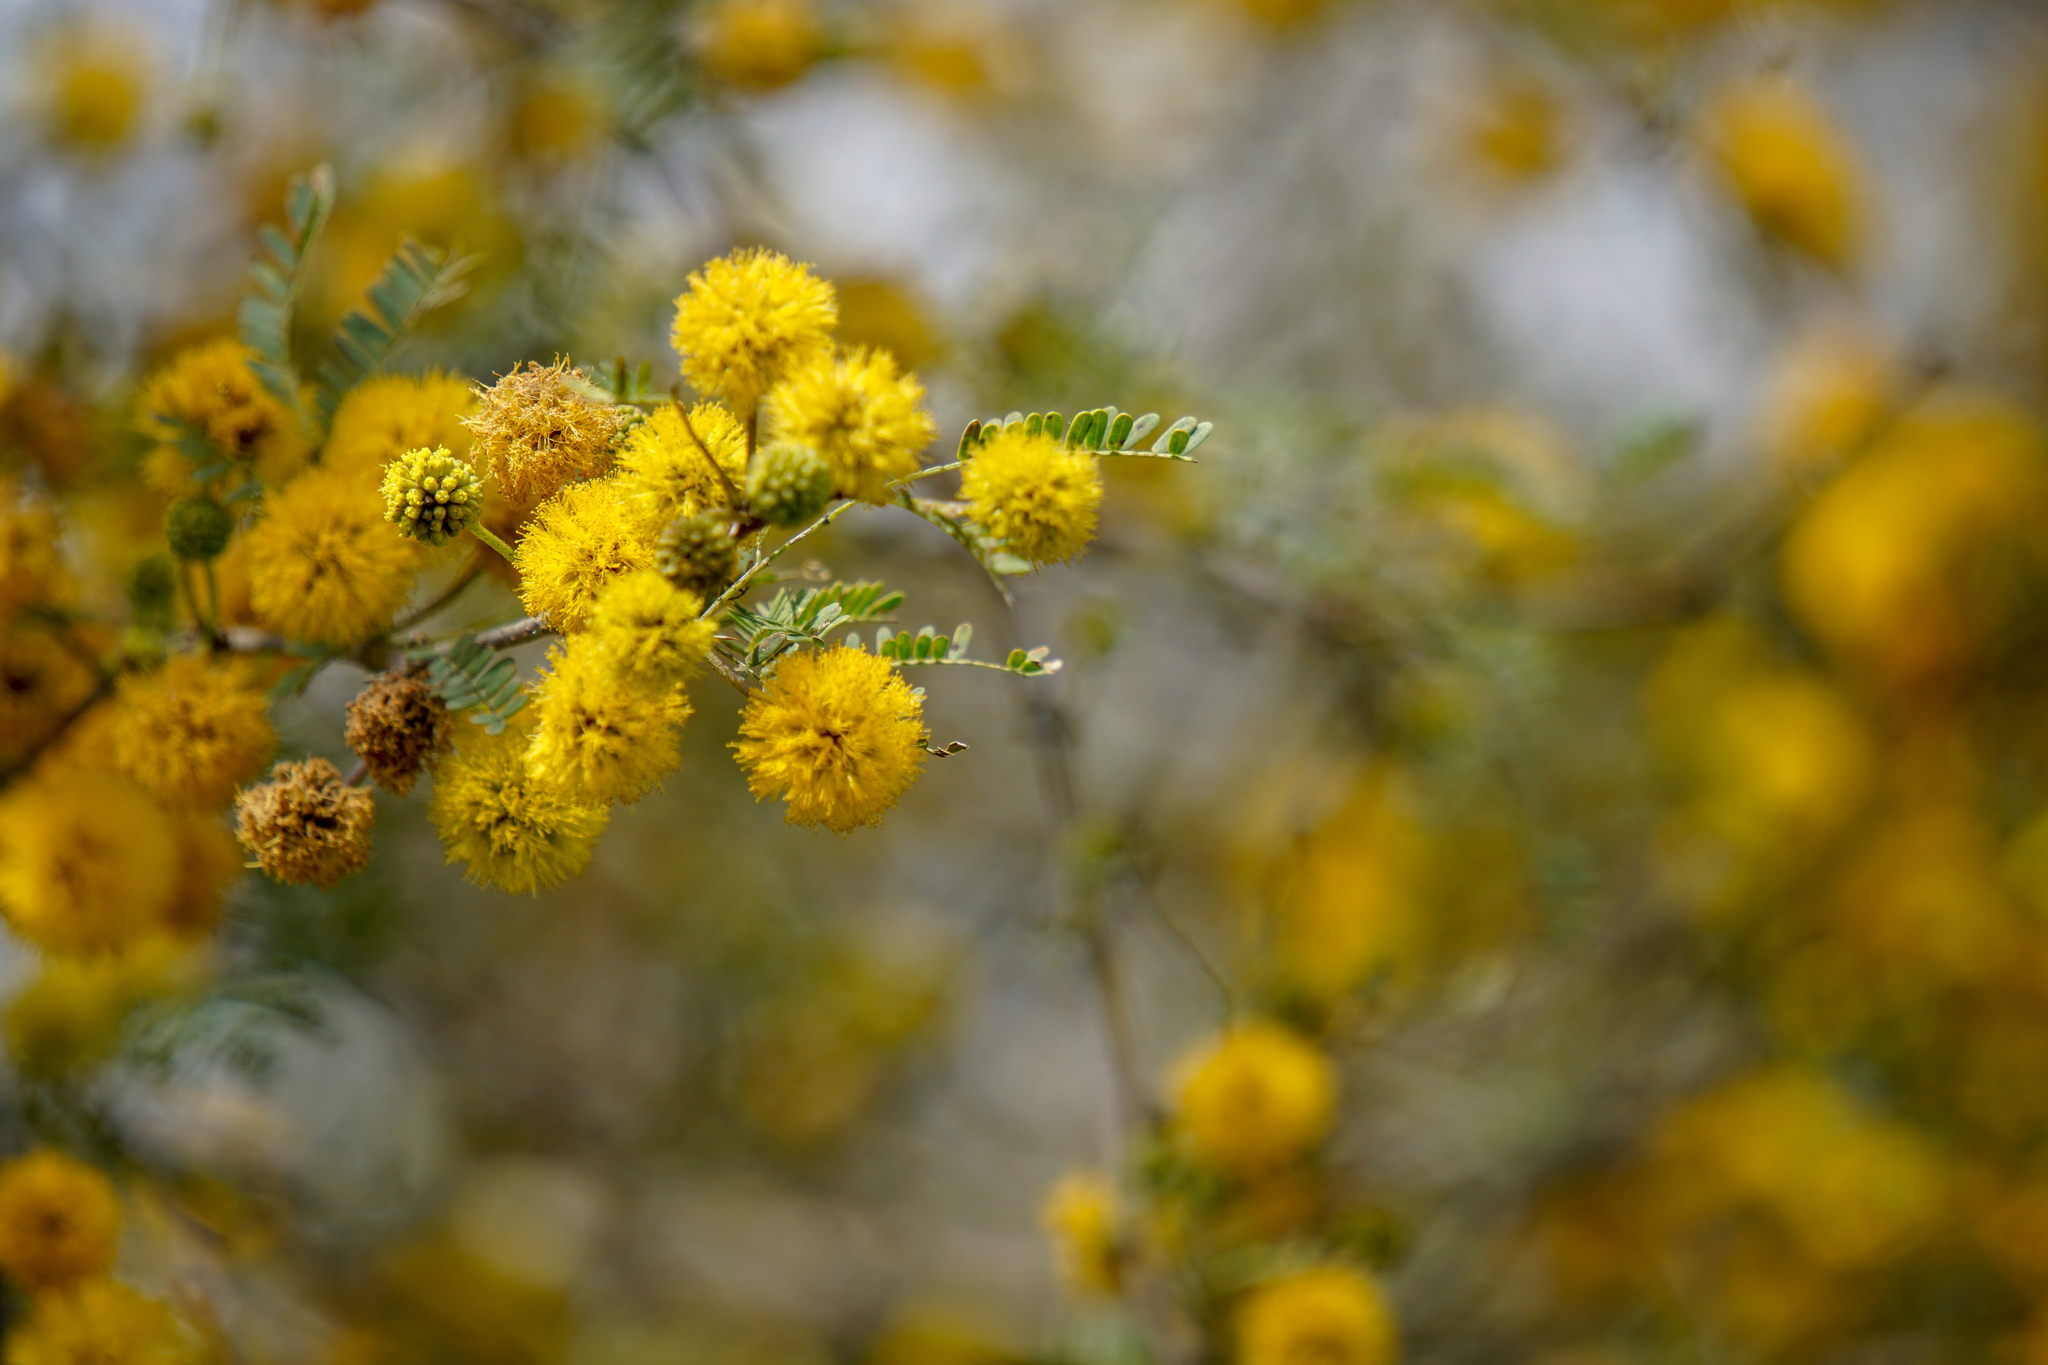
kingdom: Plantae
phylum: Tracheophyta
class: Magnoliopsida
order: Fabales
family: Fabaceae
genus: Vachellia
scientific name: Vachellia farnesiana
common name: Sweet acacia
